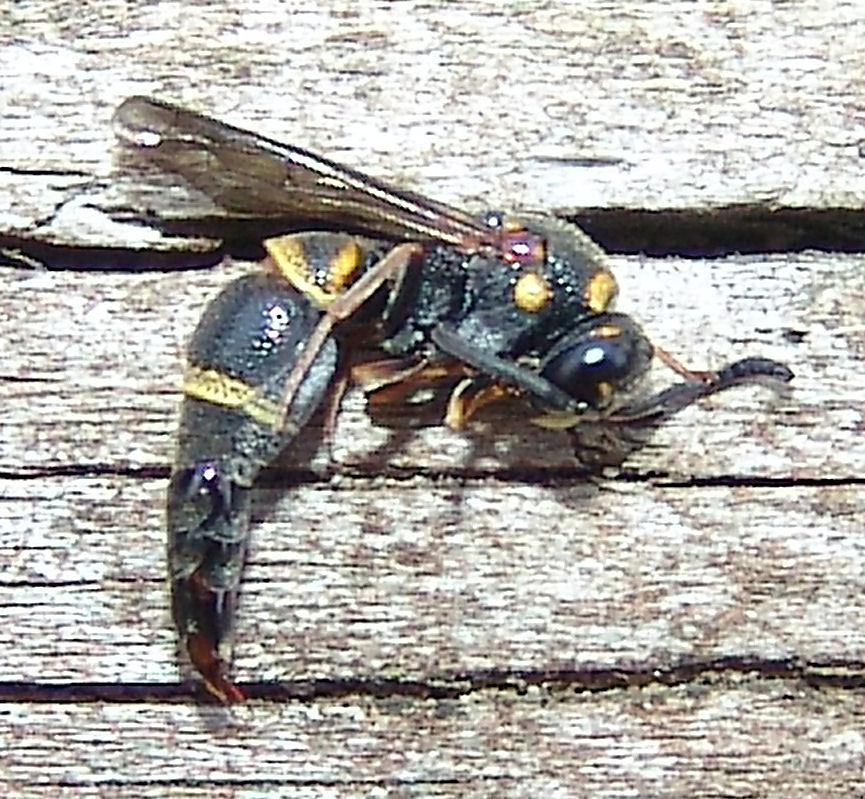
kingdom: Animalia
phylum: Arthropoda
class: Insecta
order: Hymenoptera
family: Eumenidae
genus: Parancistrocerus
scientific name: Parancistrocerus fulvipes
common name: Potter wasp
